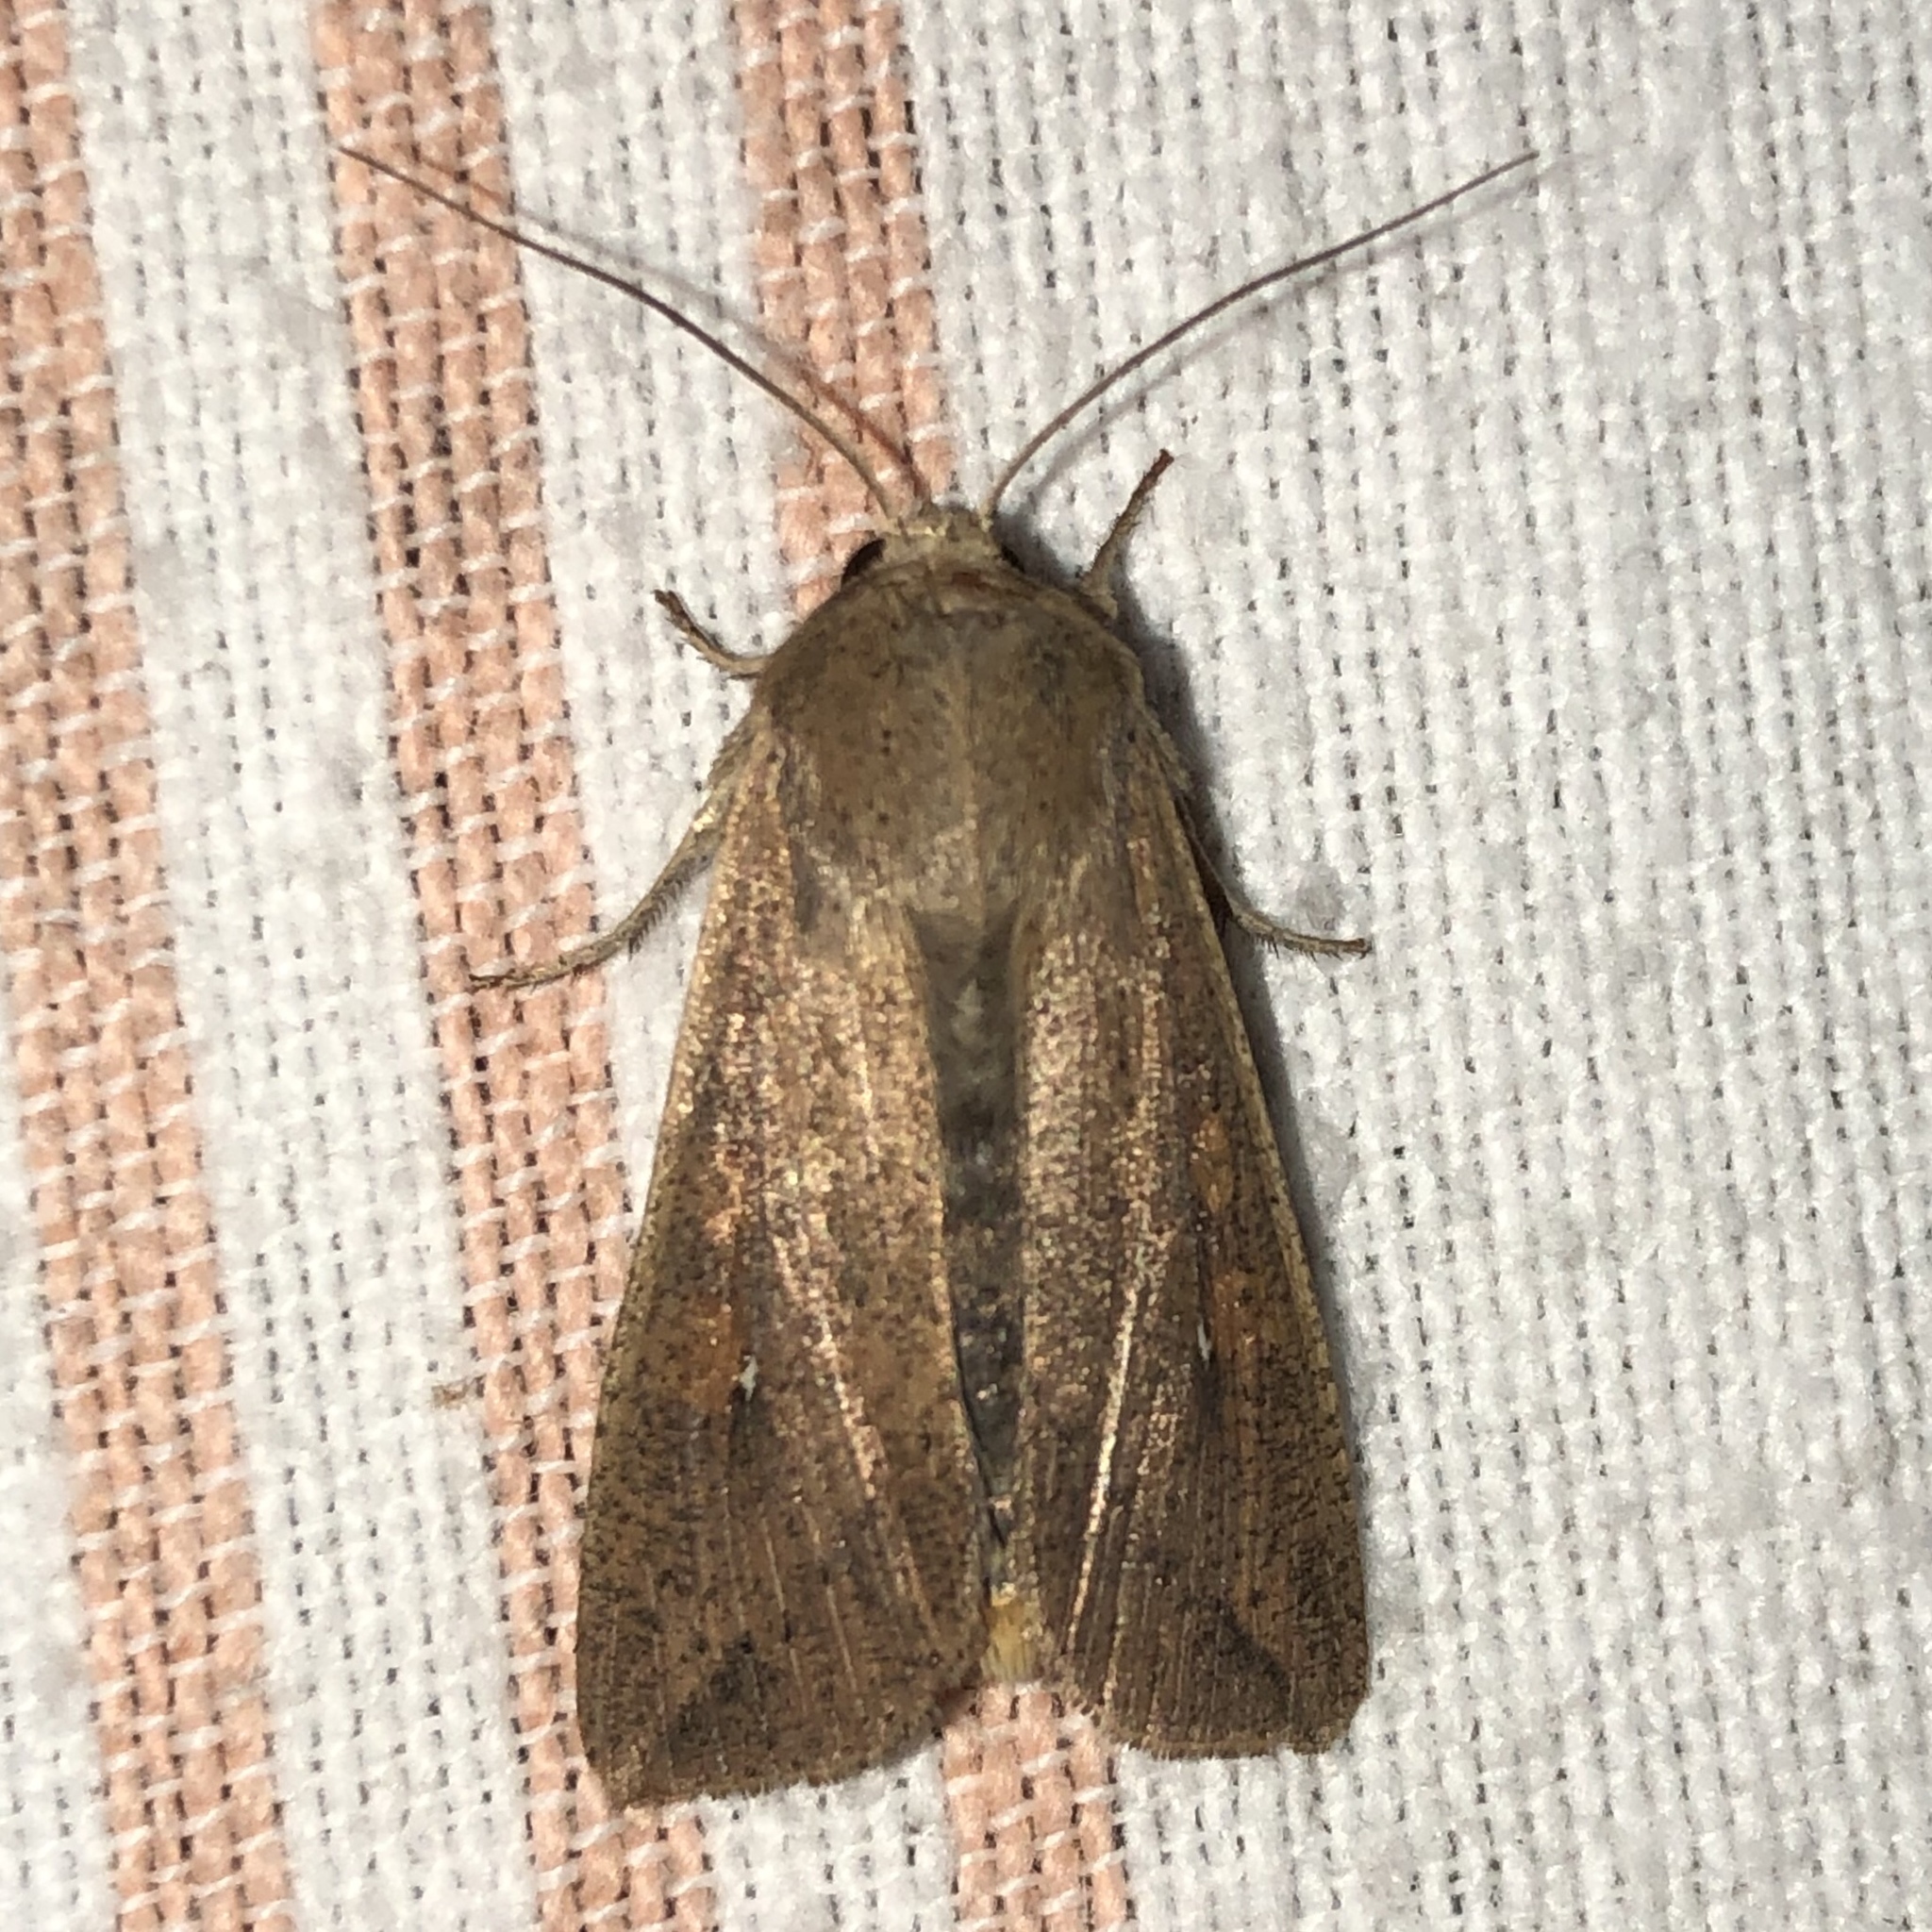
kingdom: Animalia
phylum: Arthropoda
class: Insecta
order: Lepidoptera
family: Noctuidae
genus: Mythimna
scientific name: Mythimna unipuncta
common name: White-speck
